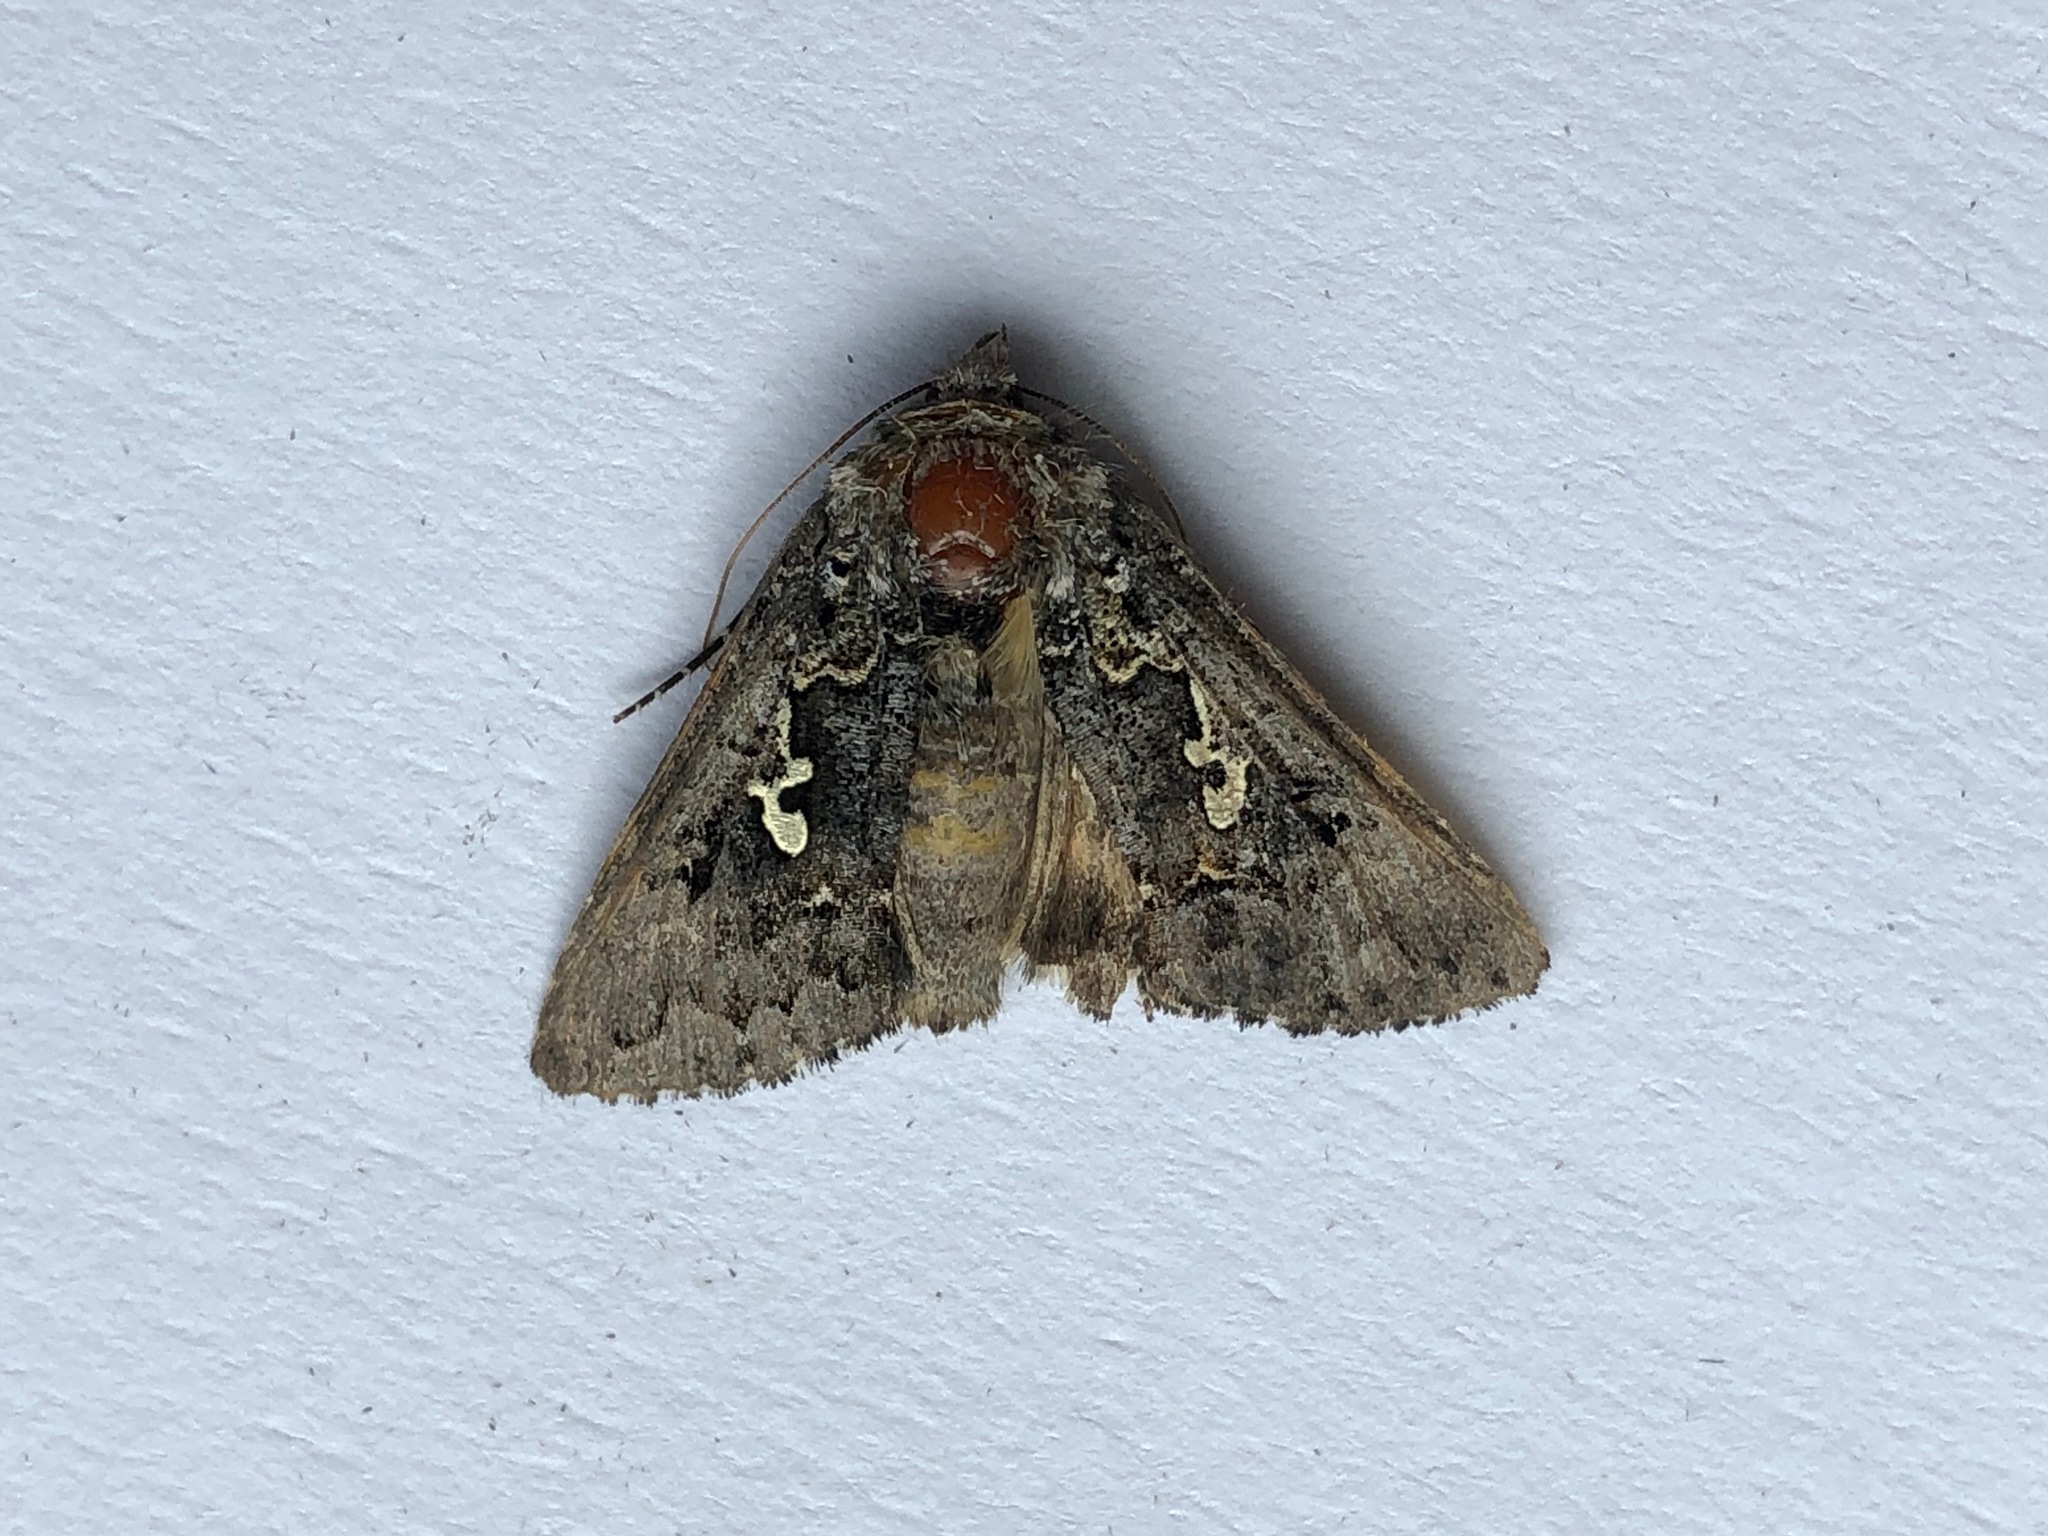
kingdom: Animalia
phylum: Arthropoda
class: Insecta
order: Lepidoptera
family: Noctuidae
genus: Syngrapha
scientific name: Syngrapha alias
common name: Hooked silver y moth
